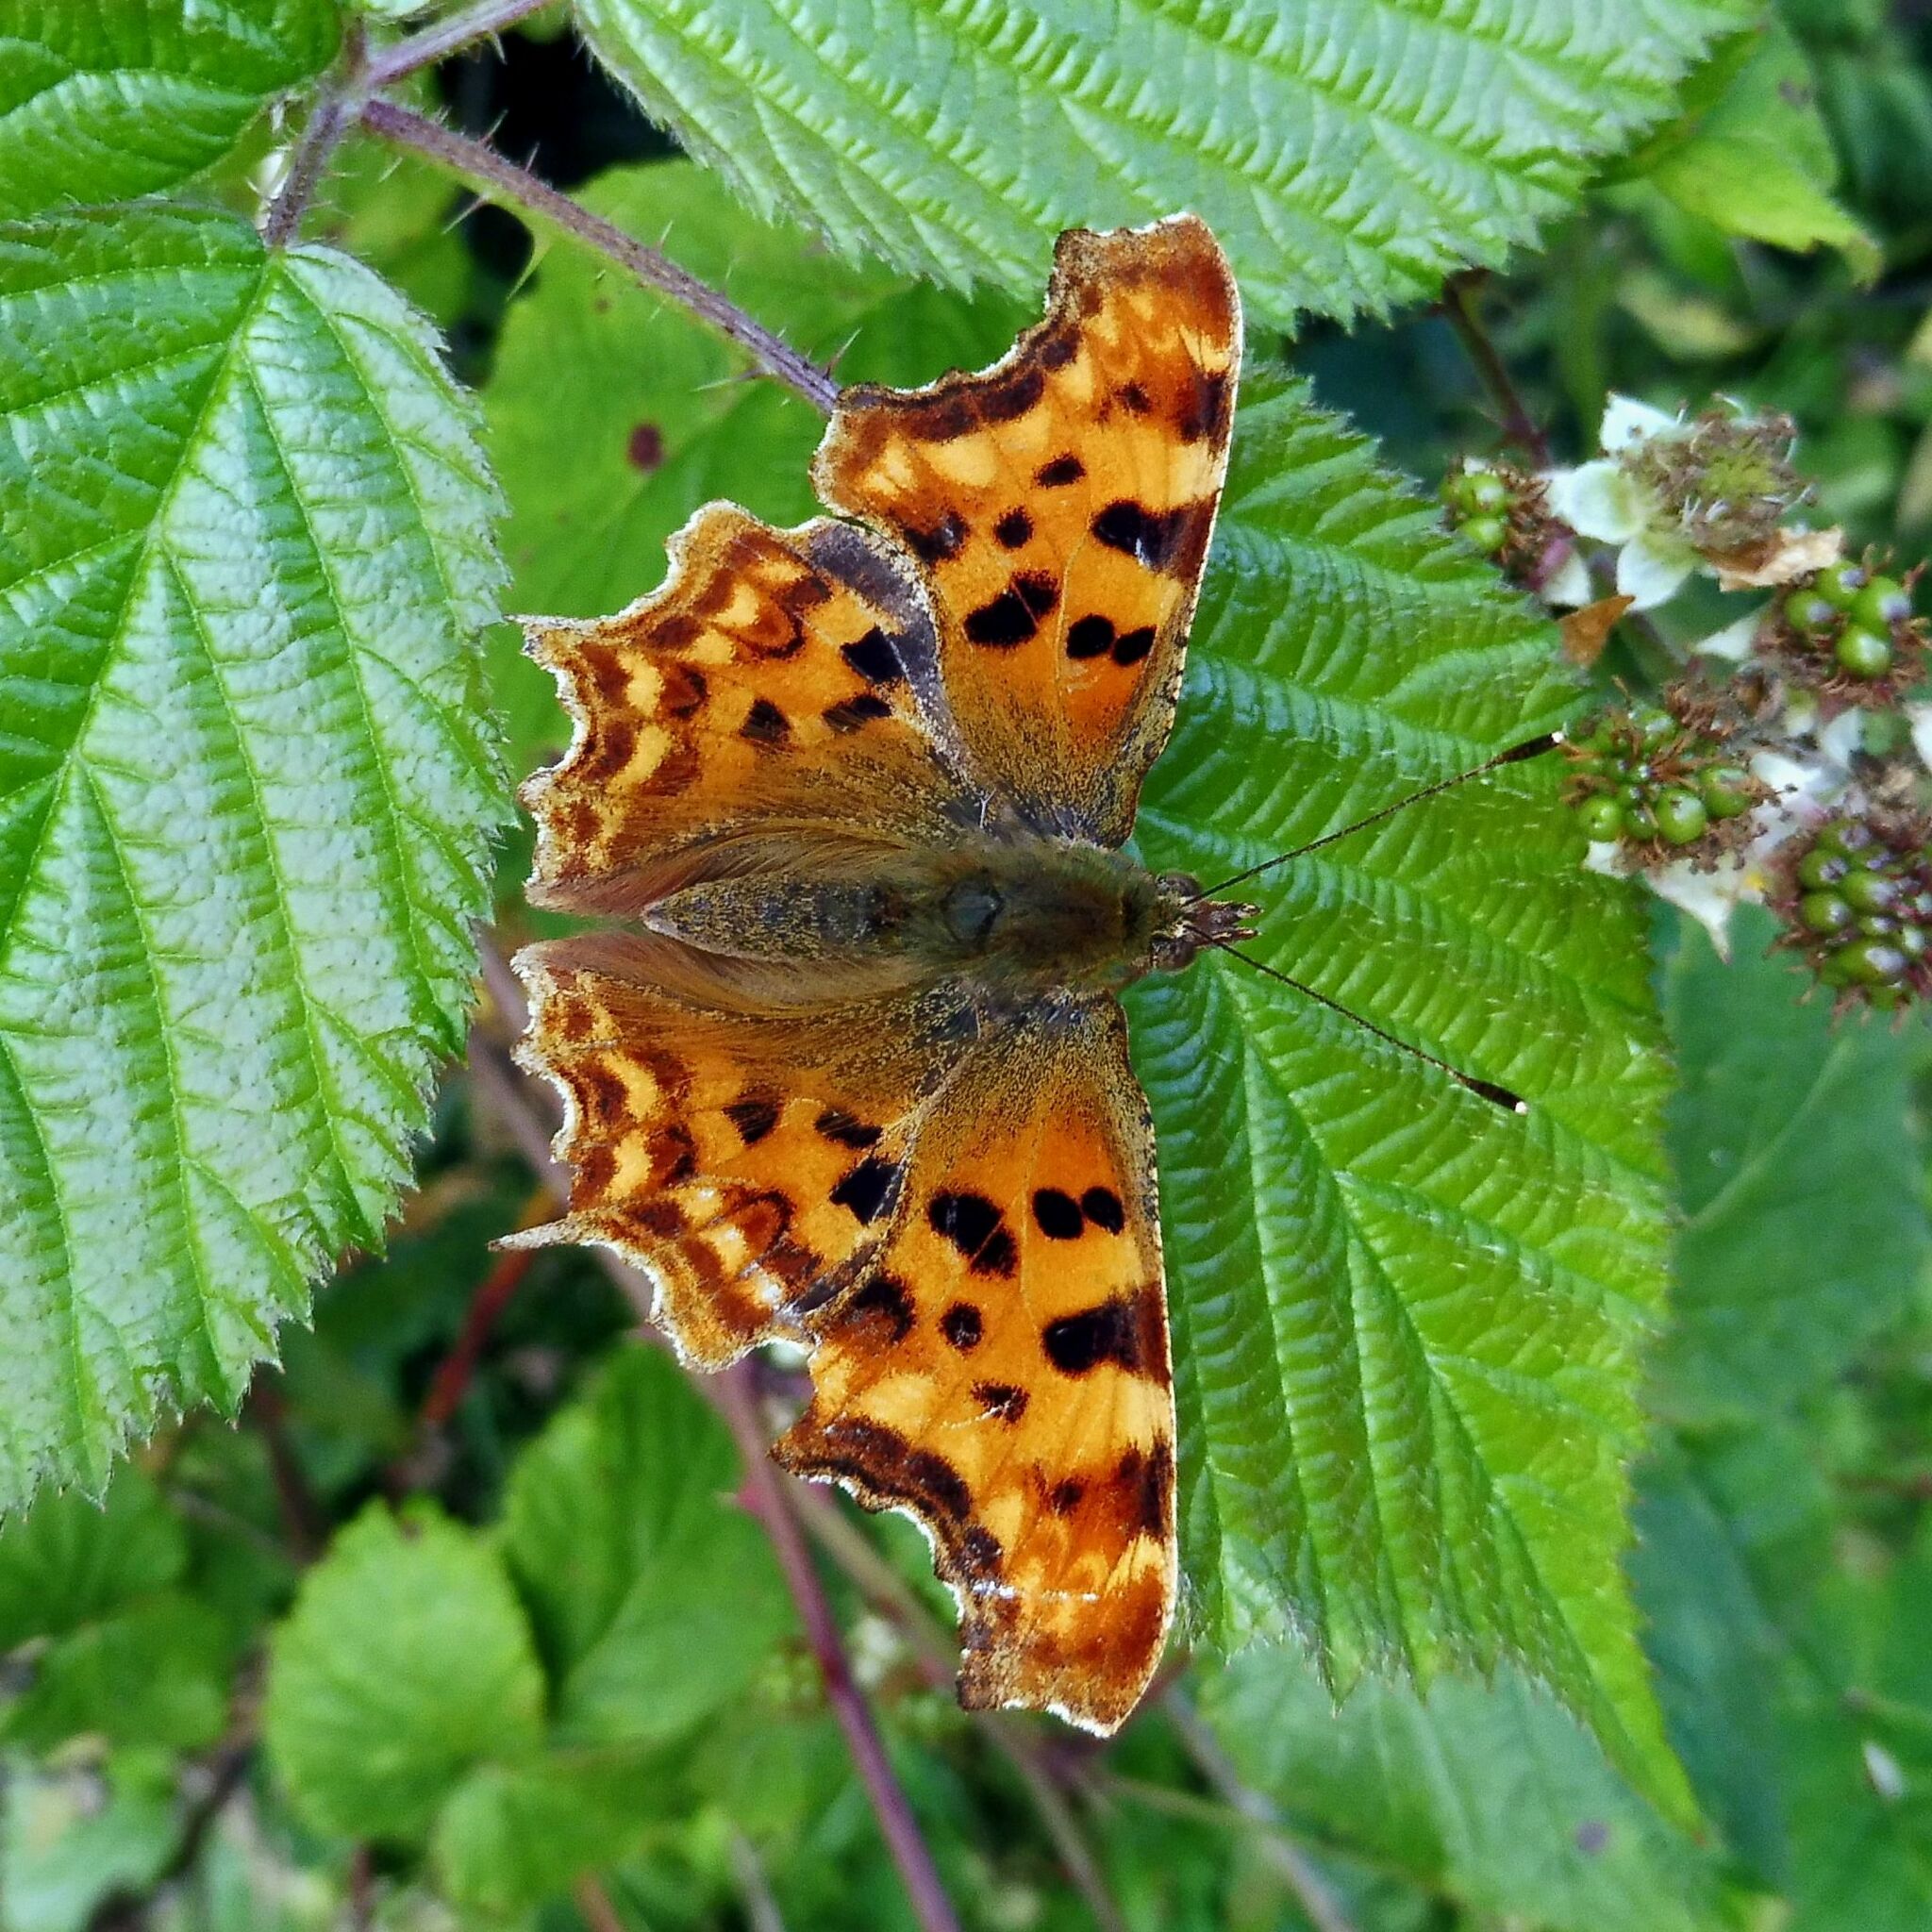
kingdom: Animalia
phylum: Arthropoda
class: Insecta
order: Lepidoptera
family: Nymphalidae
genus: Polygonia
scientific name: Polygonia c-album
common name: Comma
